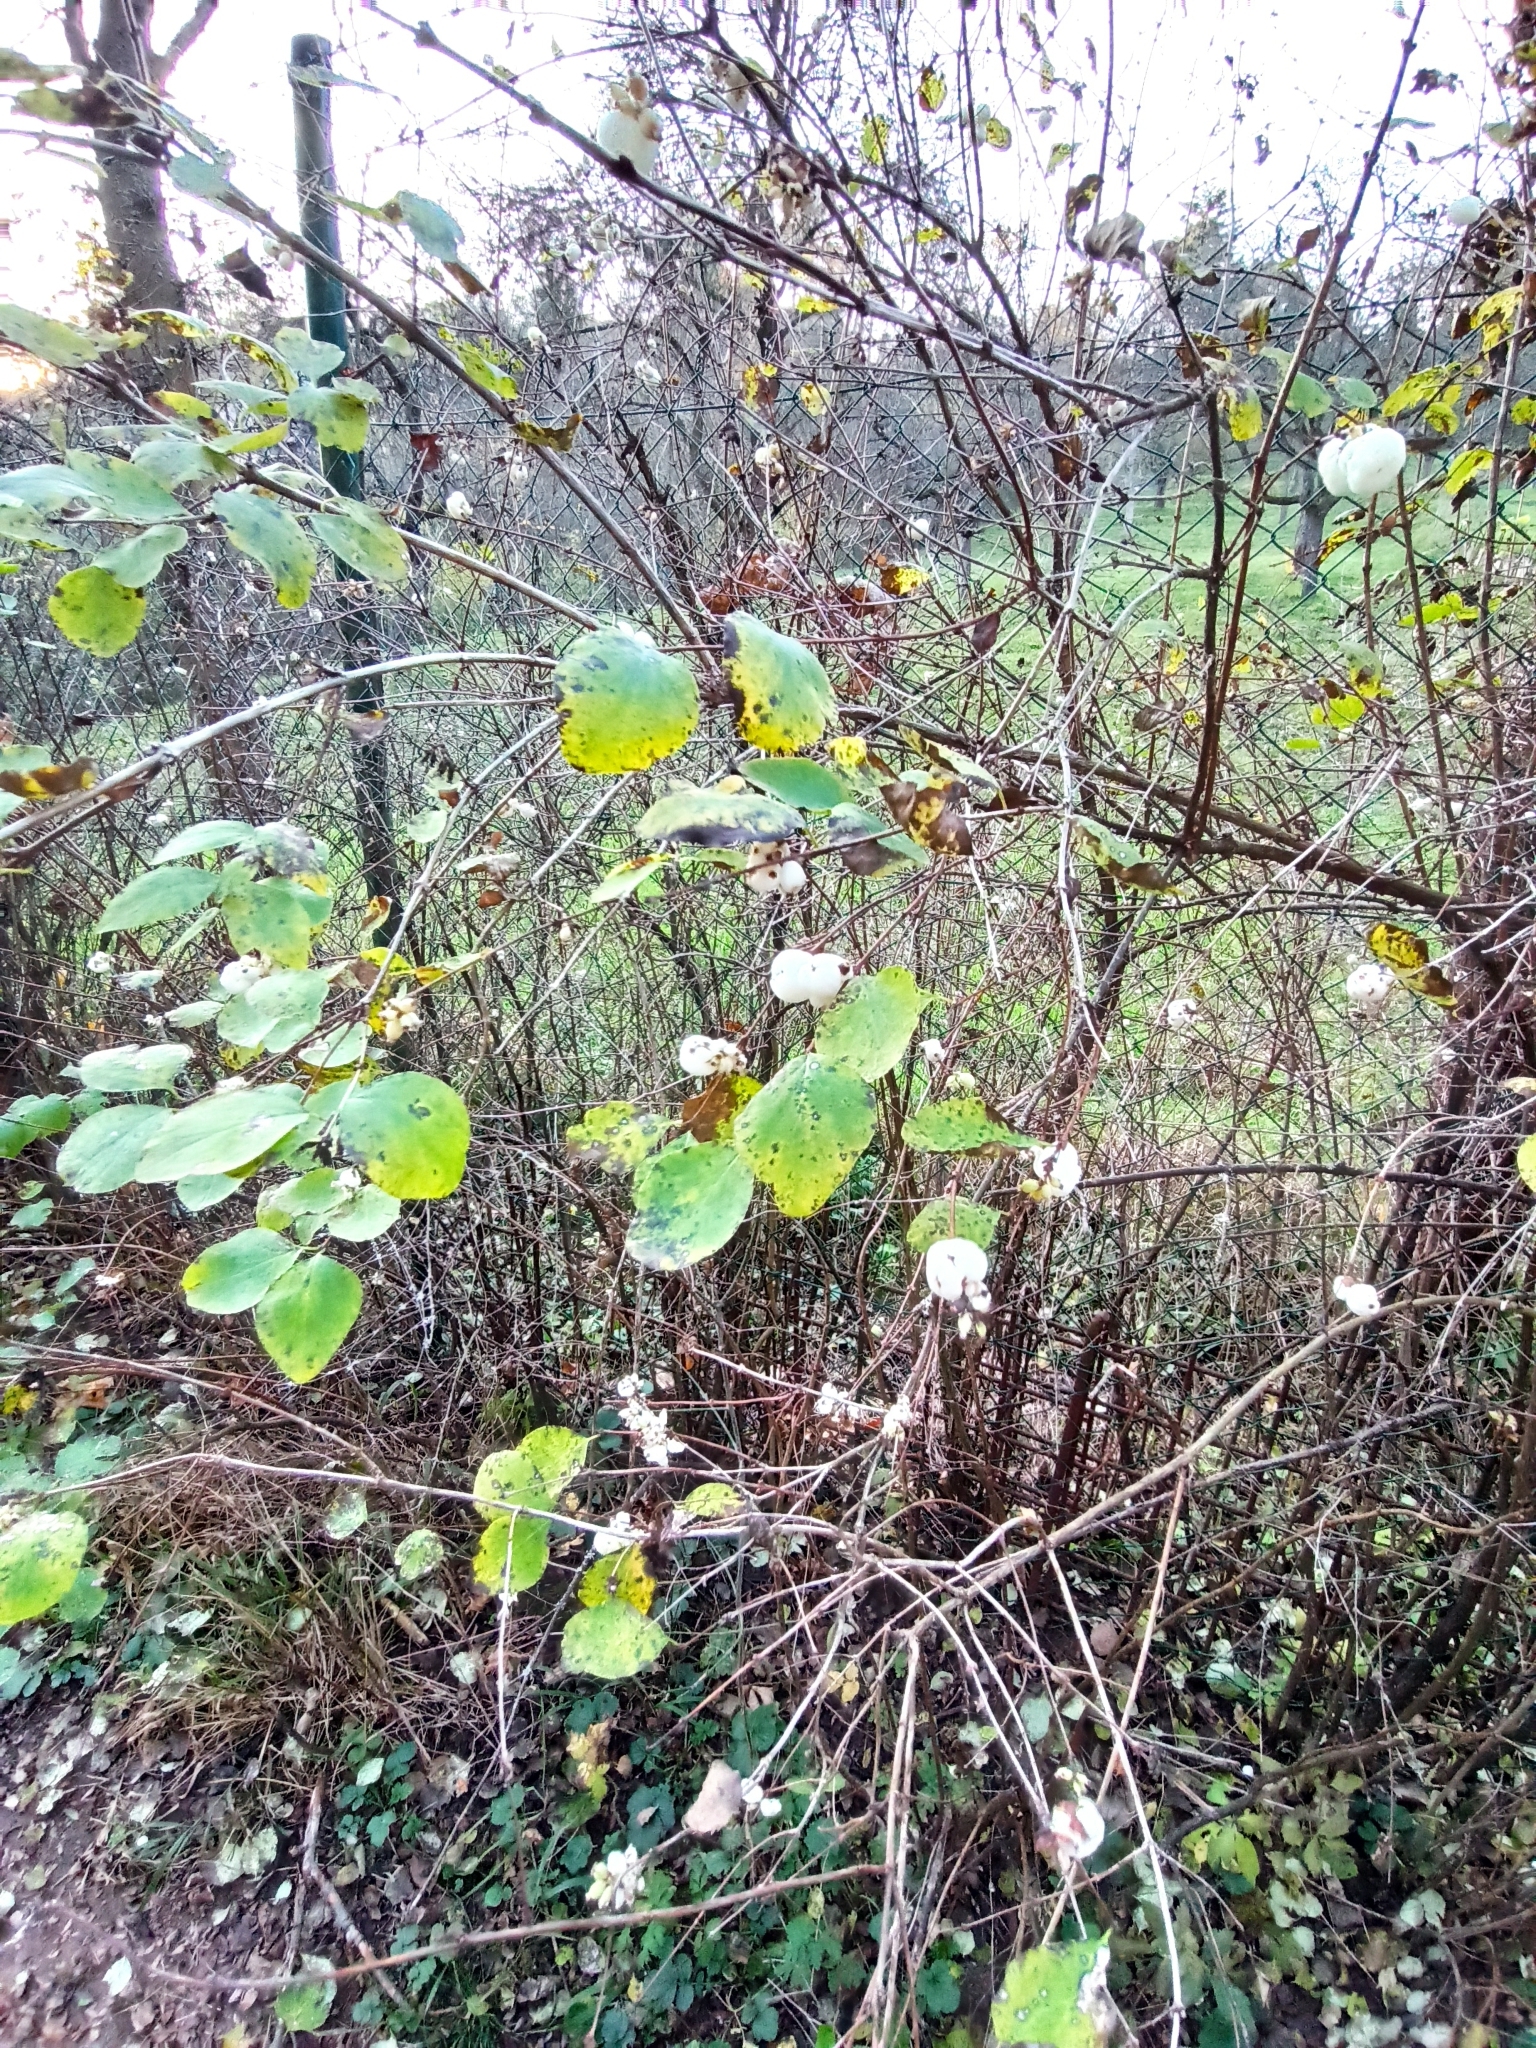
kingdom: Plantae
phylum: Tracheophyta
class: Magnoliopsida
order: Dipsacales
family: Caprifoliaceae
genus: Symphoricarpos
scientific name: Symphoricarpos albus
